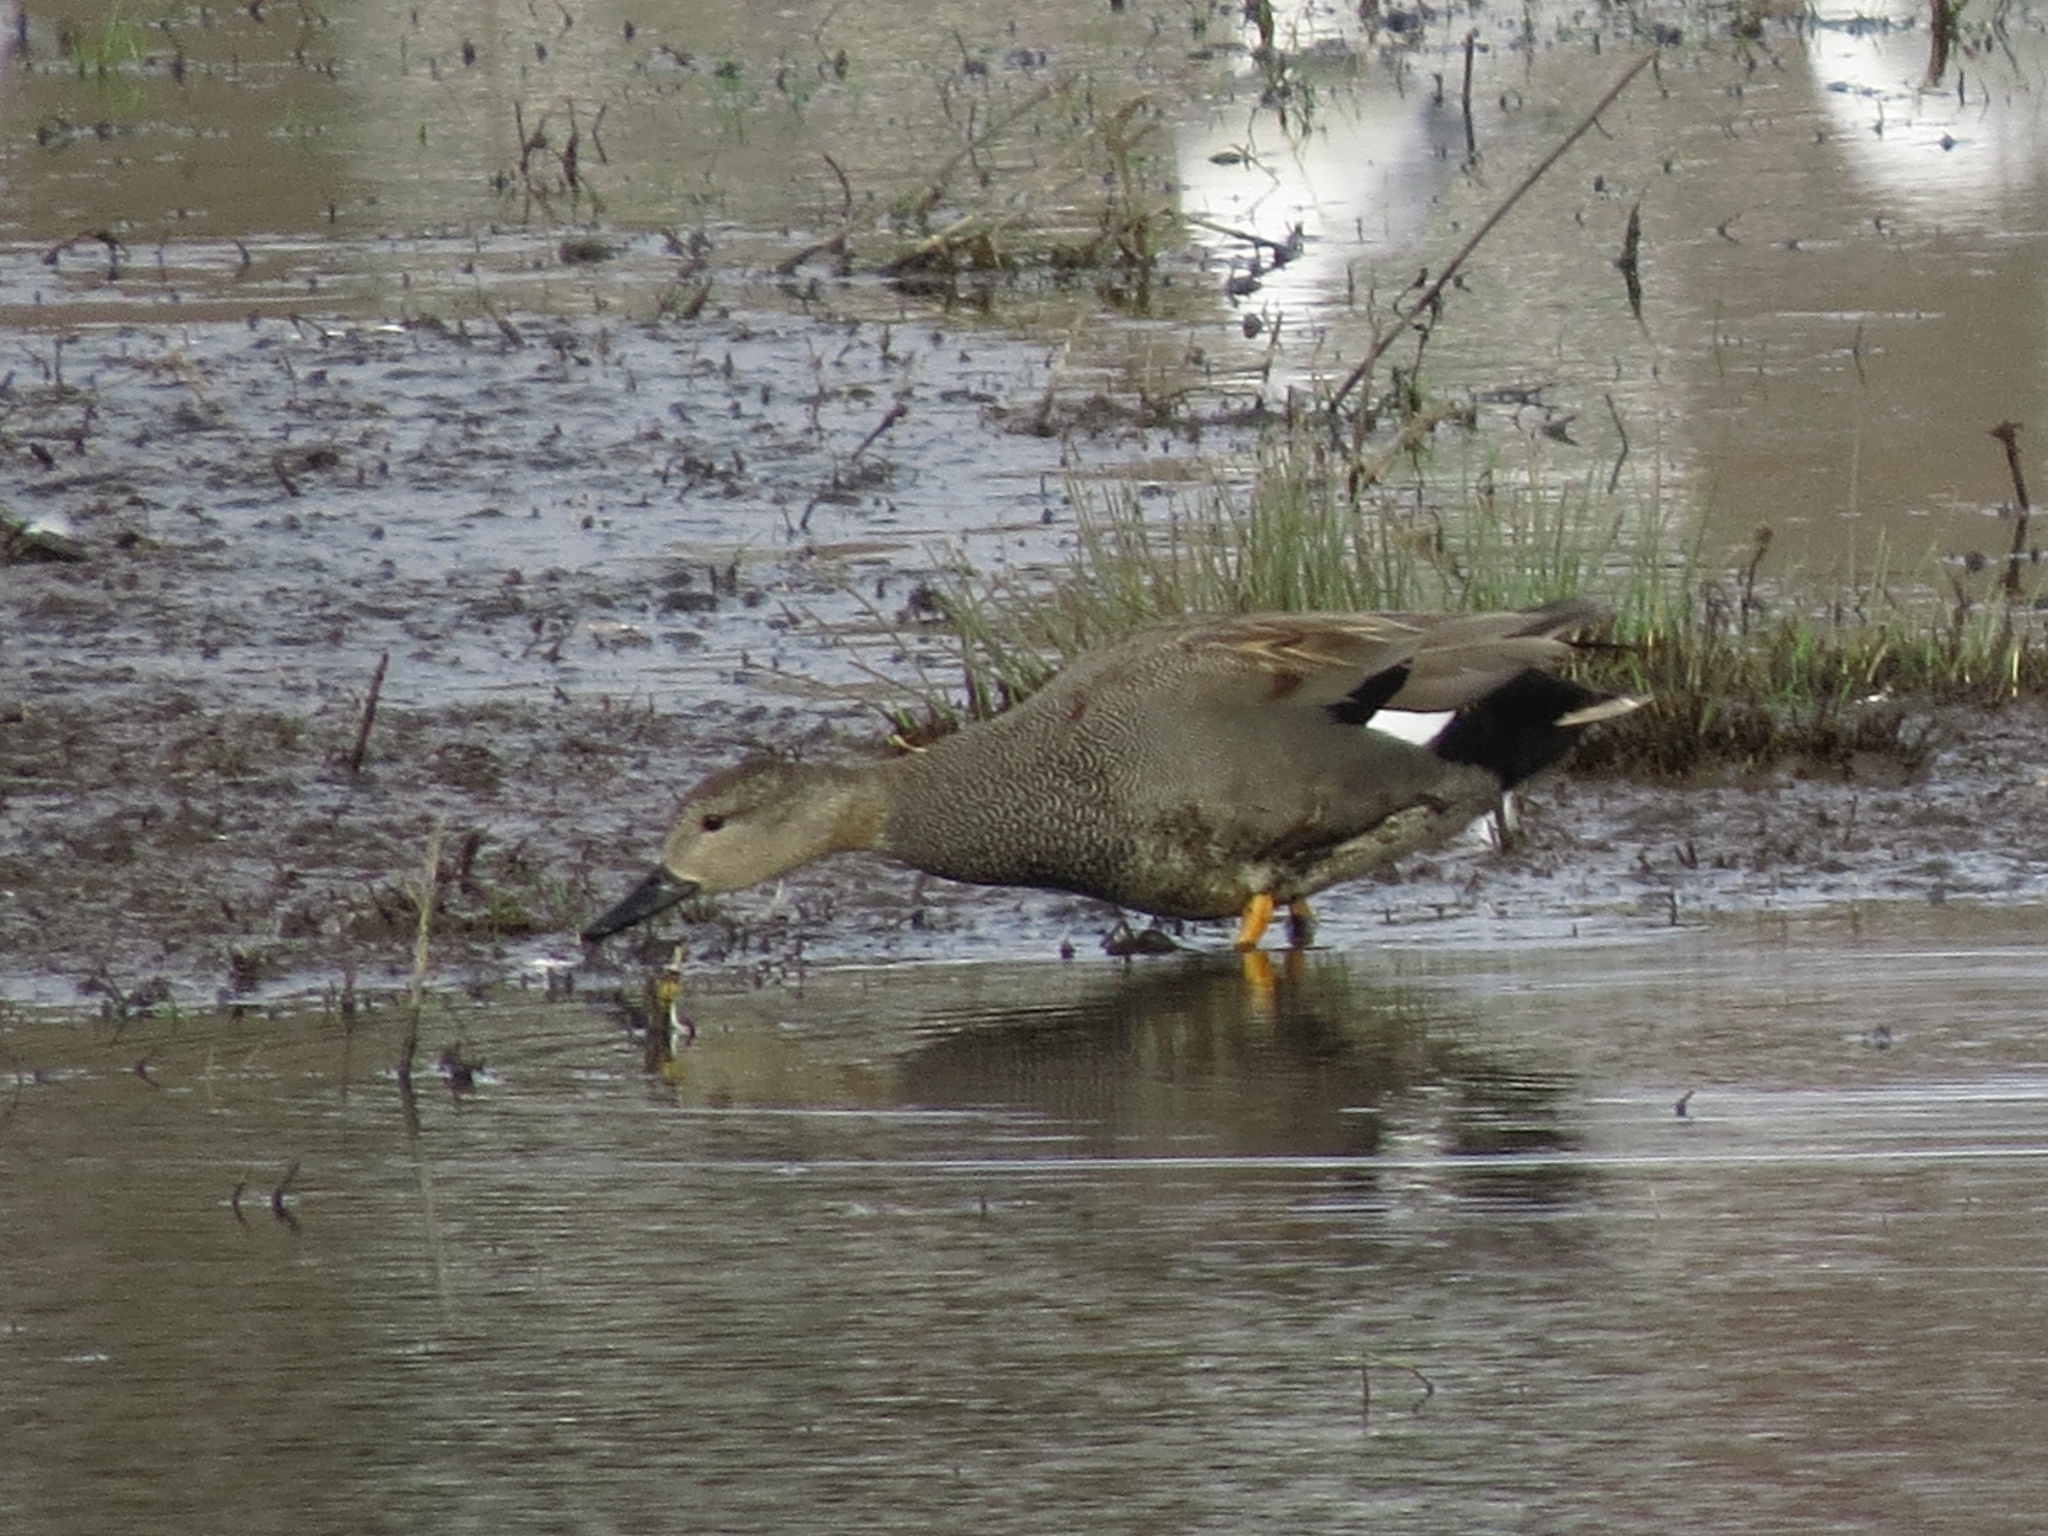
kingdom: Animalia
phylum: Chordata
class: Aves
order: Anseriformes
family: Anatidae
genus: Mareca
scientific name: Mareca strepera
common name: Gadwall
